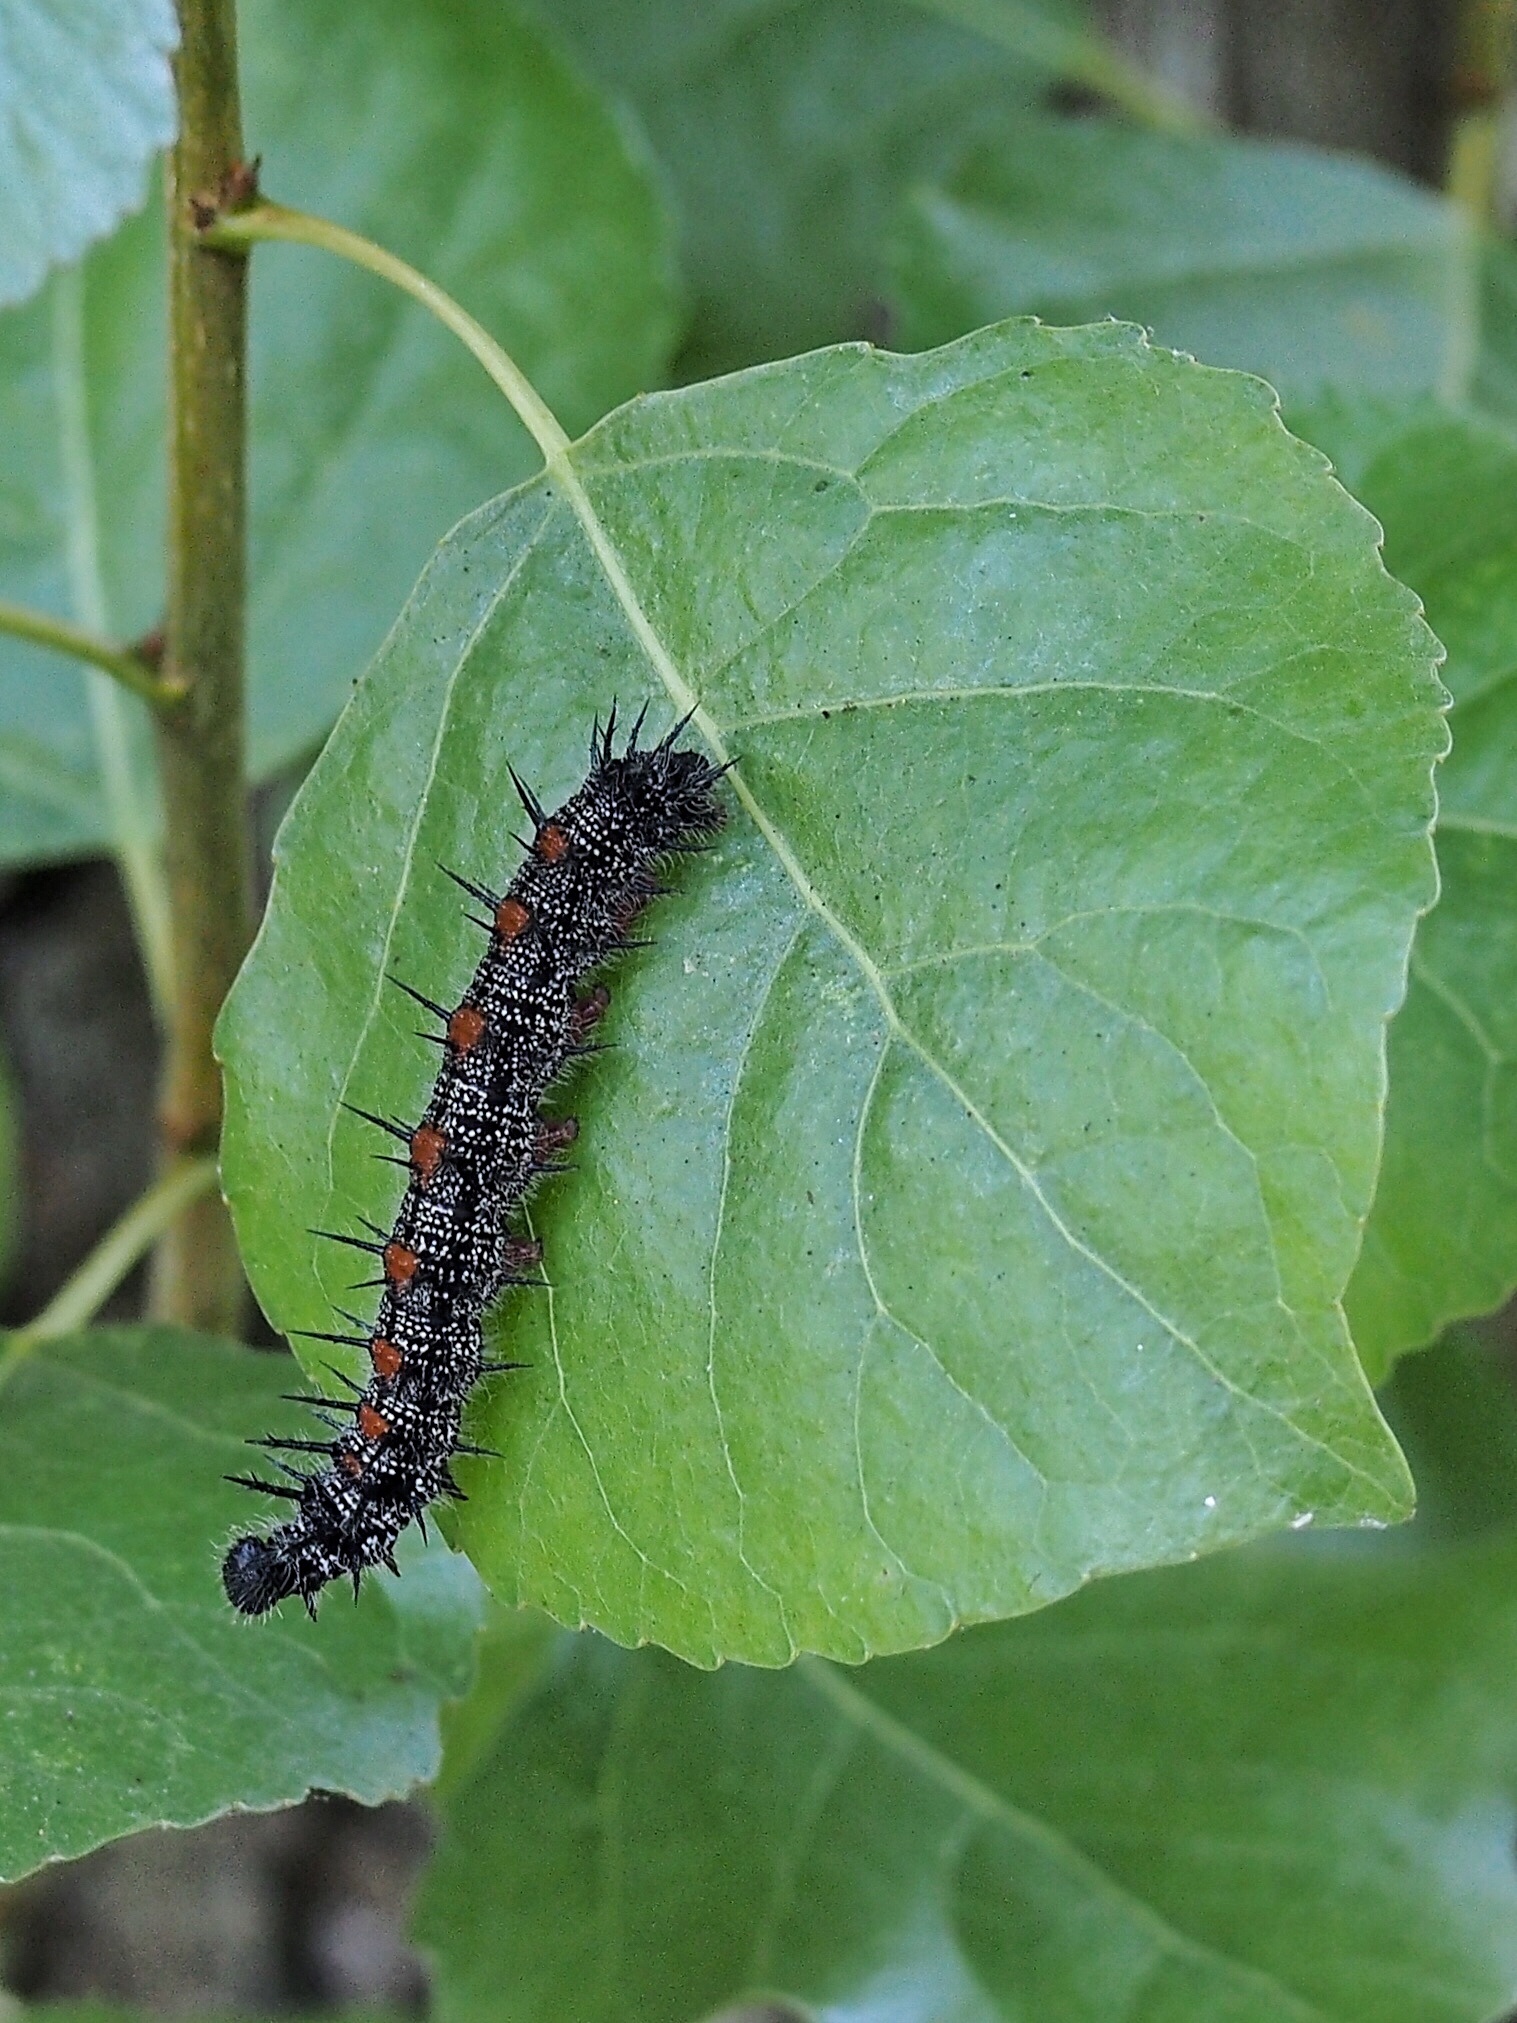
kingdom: Animalia
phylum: Arthropoda
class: Insecta
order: Lepidoptera
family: Nymphalidae
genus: Nymphalis
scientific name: Nymphalis antiopa
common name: Camberwell beauty
